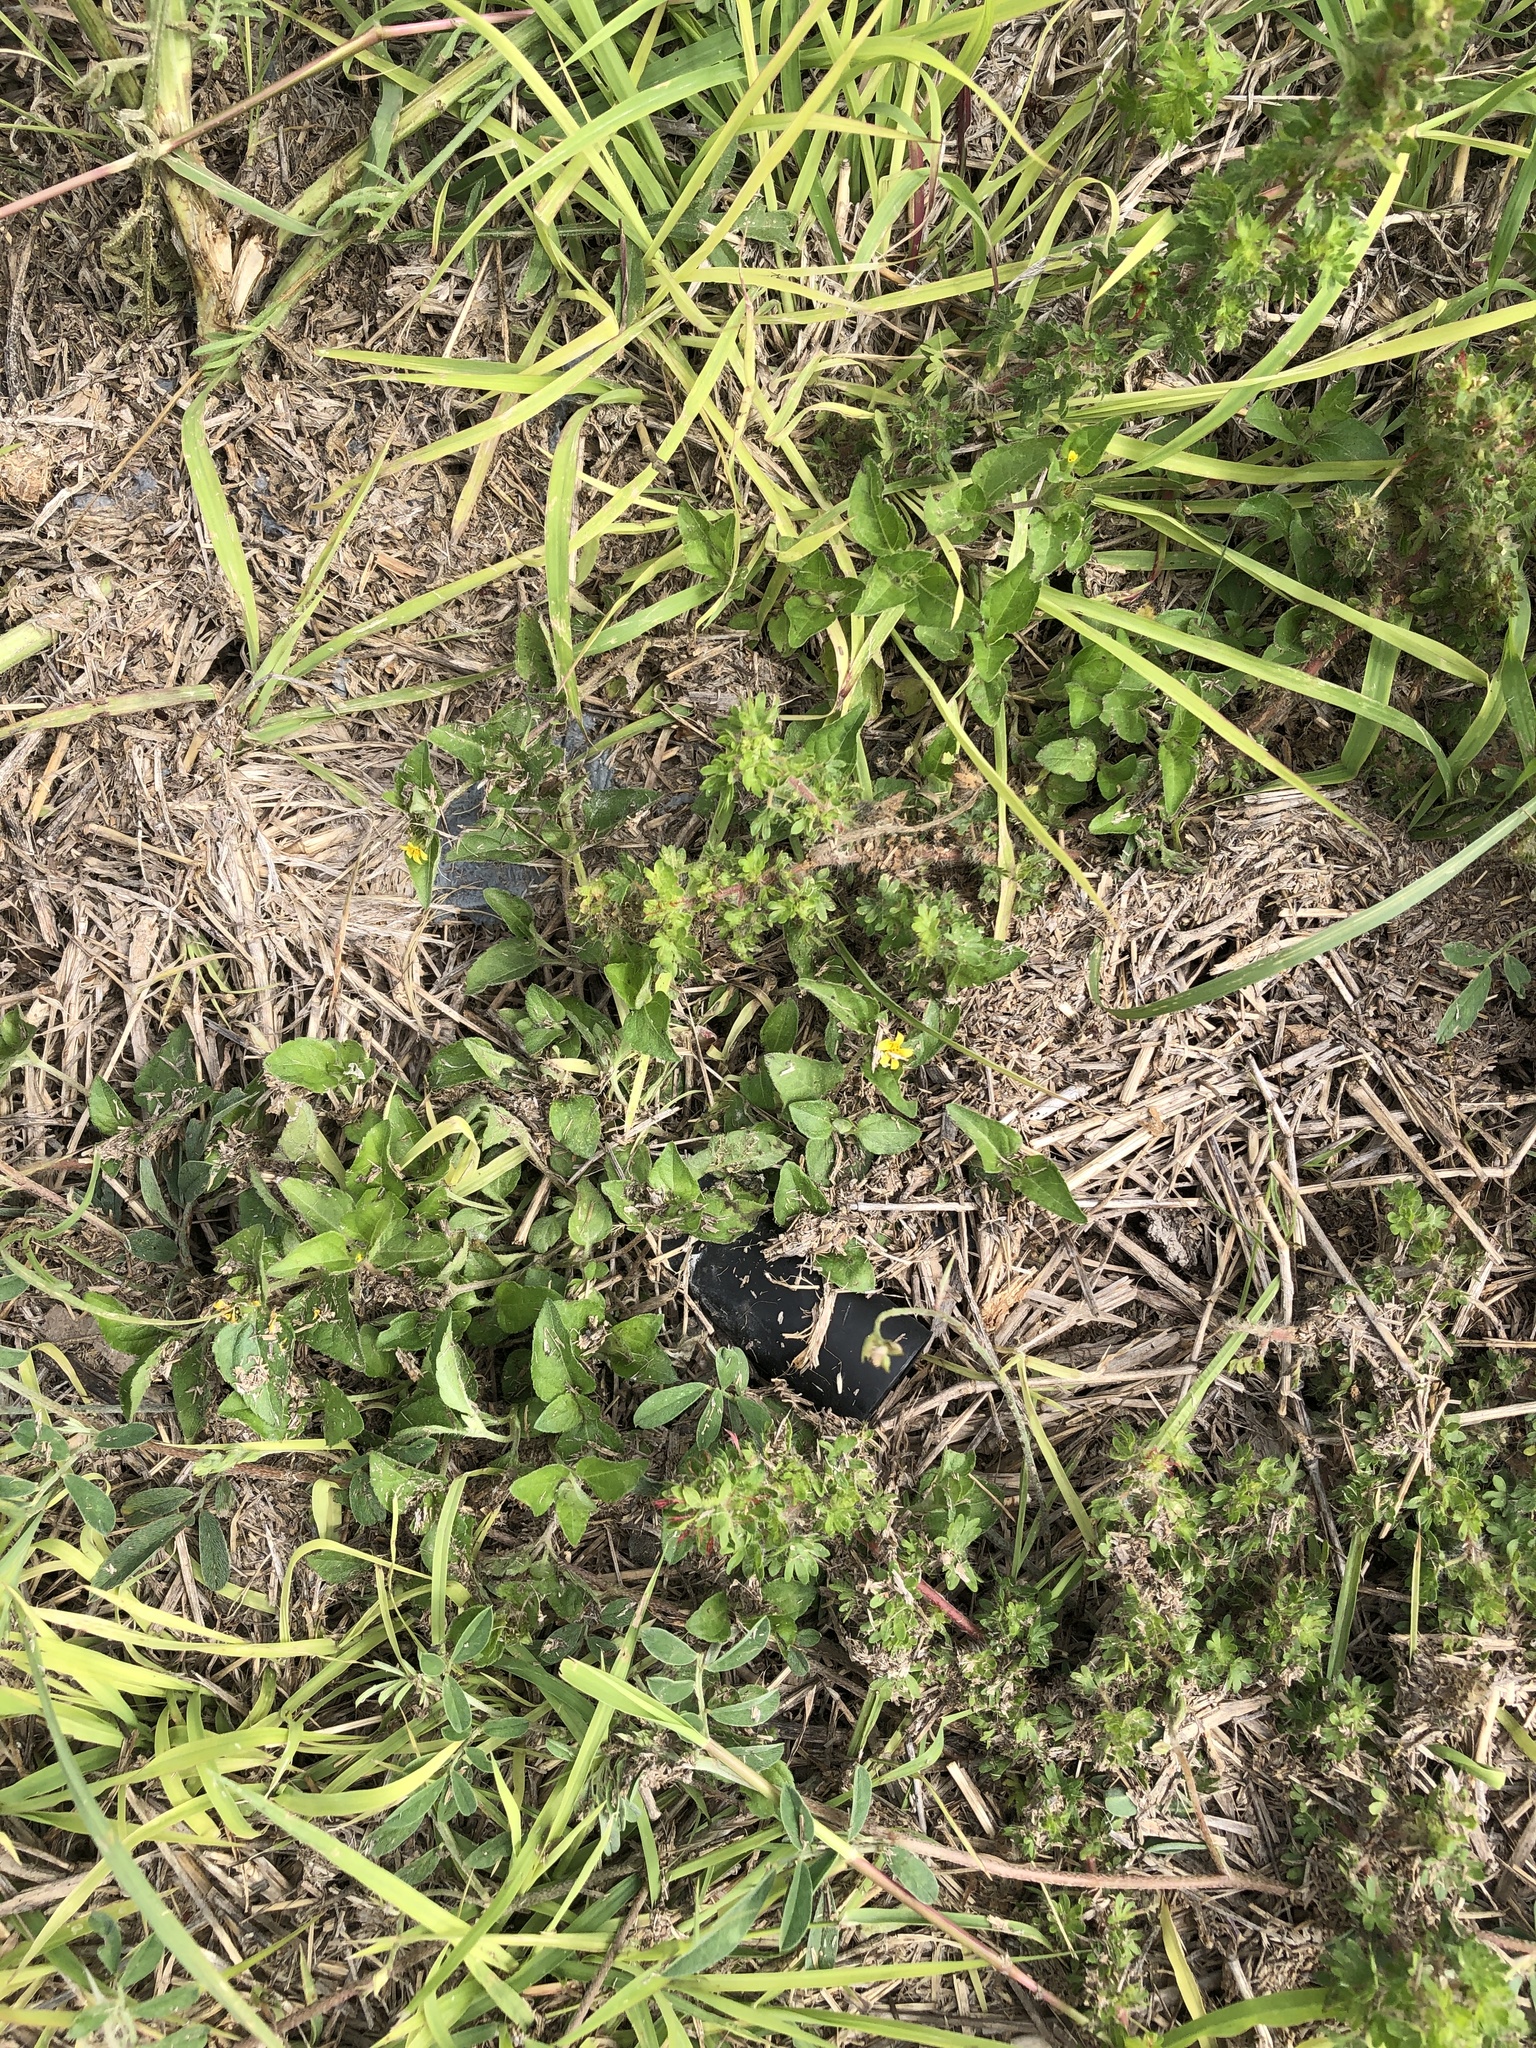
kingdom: Plantae
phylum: Tracheophyta
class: Magnoliopsida
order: Asterales
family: Asteraceae
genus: Calyptocarpus
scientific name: Calyptocarpus vialis
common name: Straggler daisy
